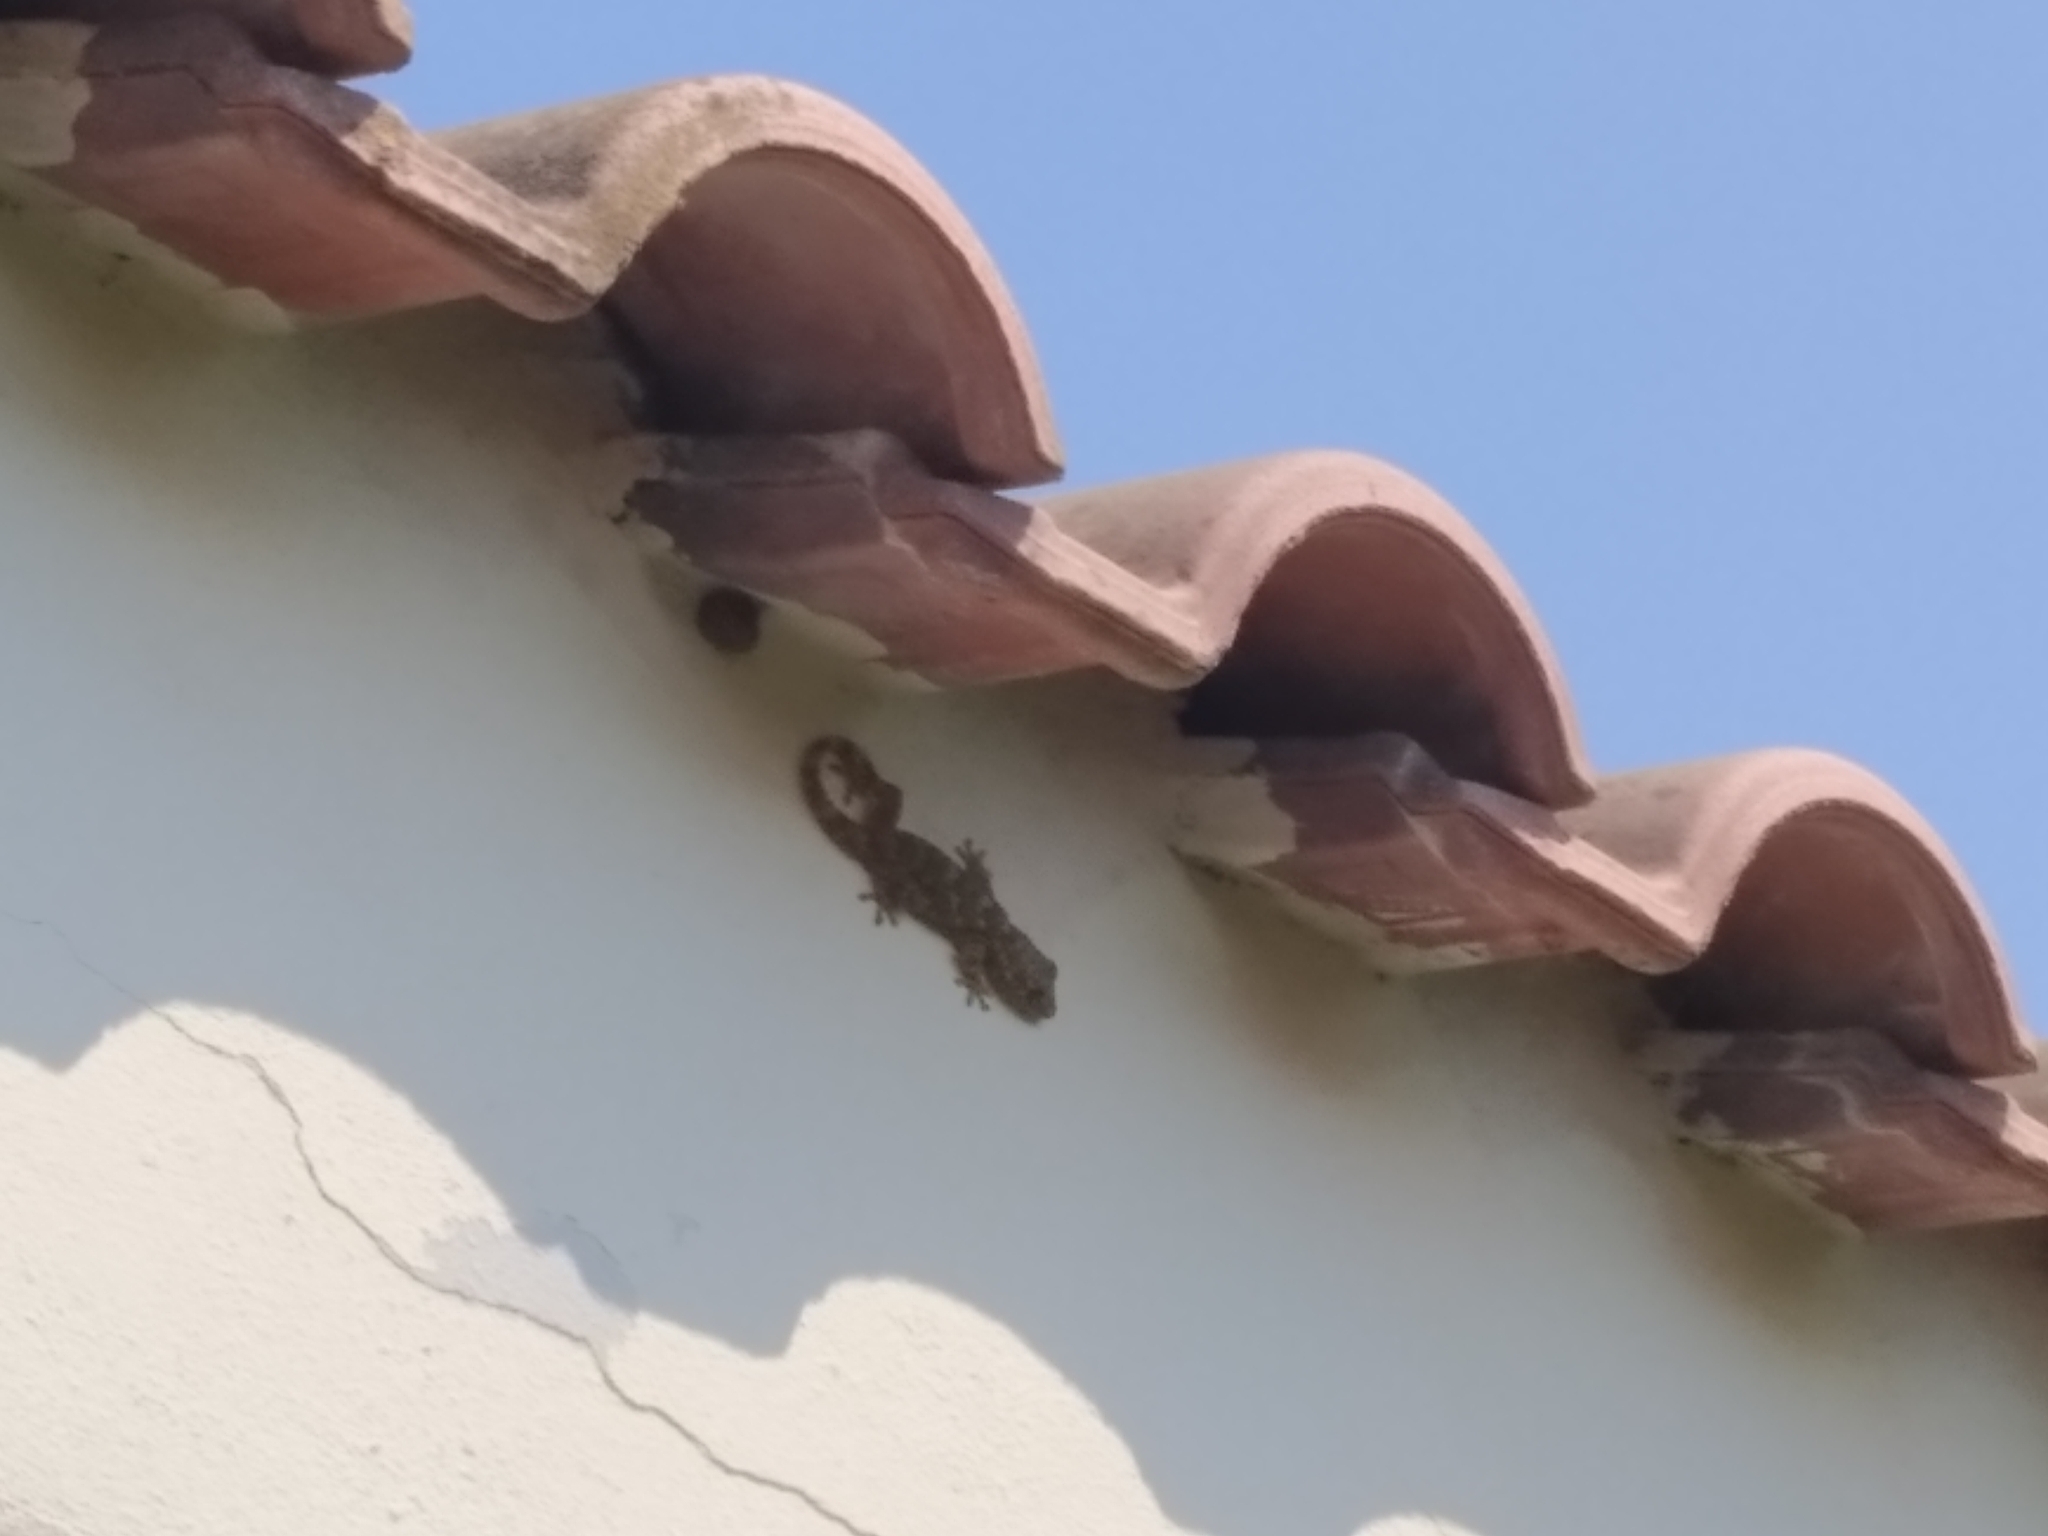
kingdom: Animalia
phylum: Chordata
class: Squamata
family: Phyllodactylidae
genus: Tarentola
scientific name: Tarentola mauritanica
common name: Moorish gecko
